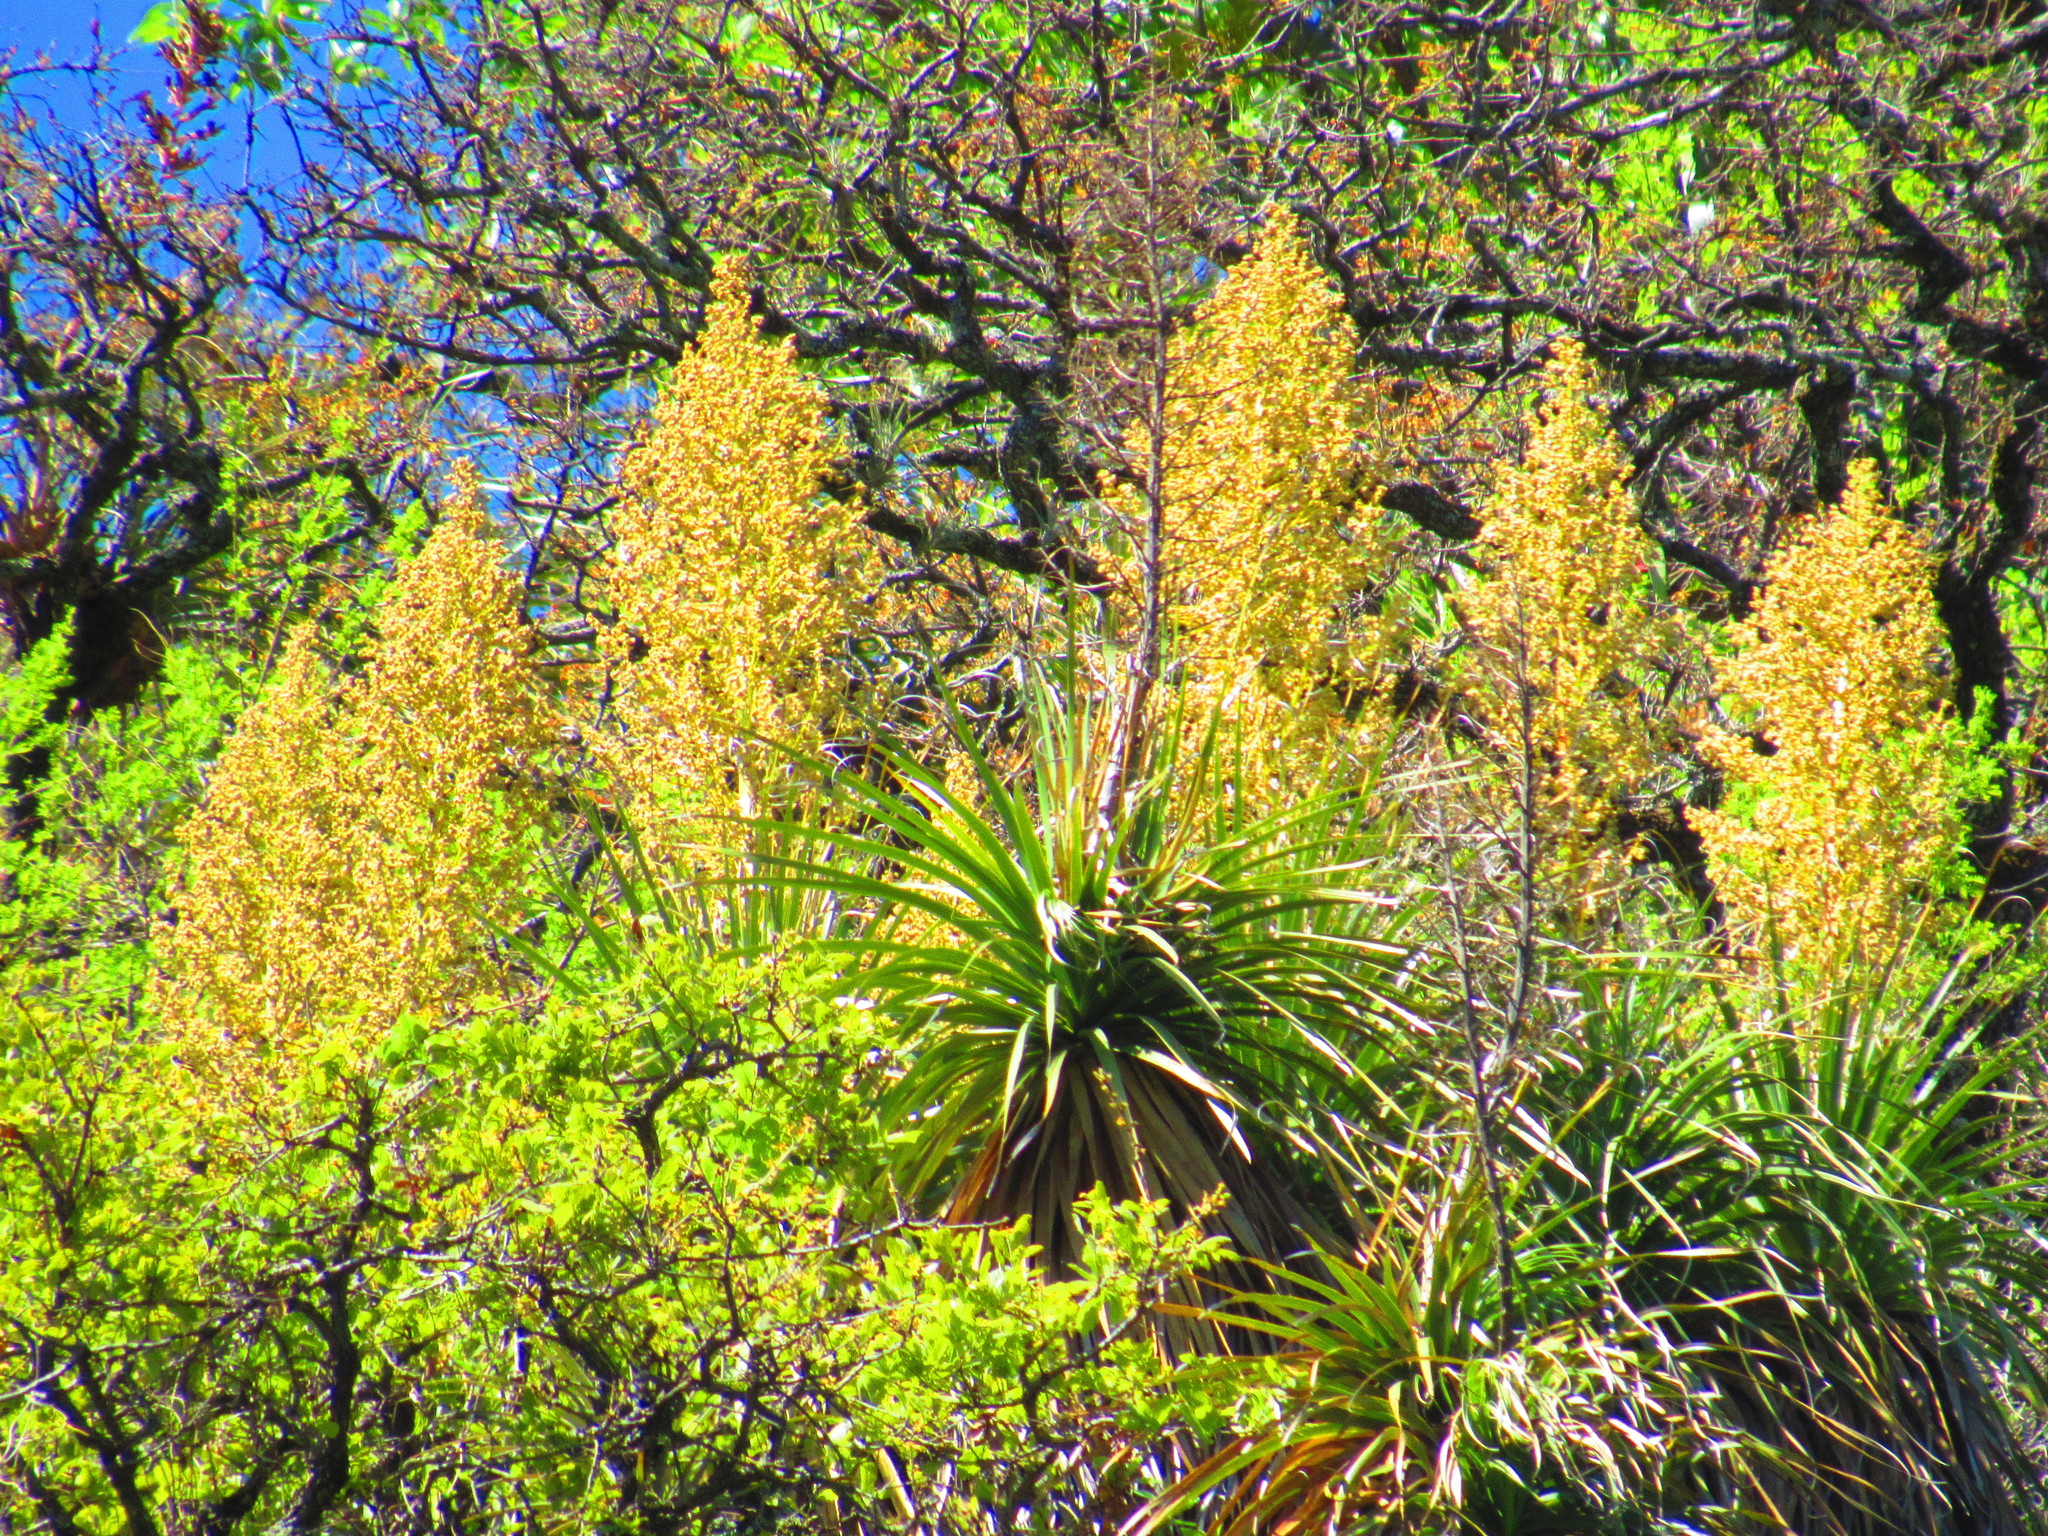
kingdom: Plantae
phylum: Tracheophyta
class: Liliopsida
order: Asparagales
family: Asparagaceae
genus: Nolina
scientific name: Nolina parviflora
